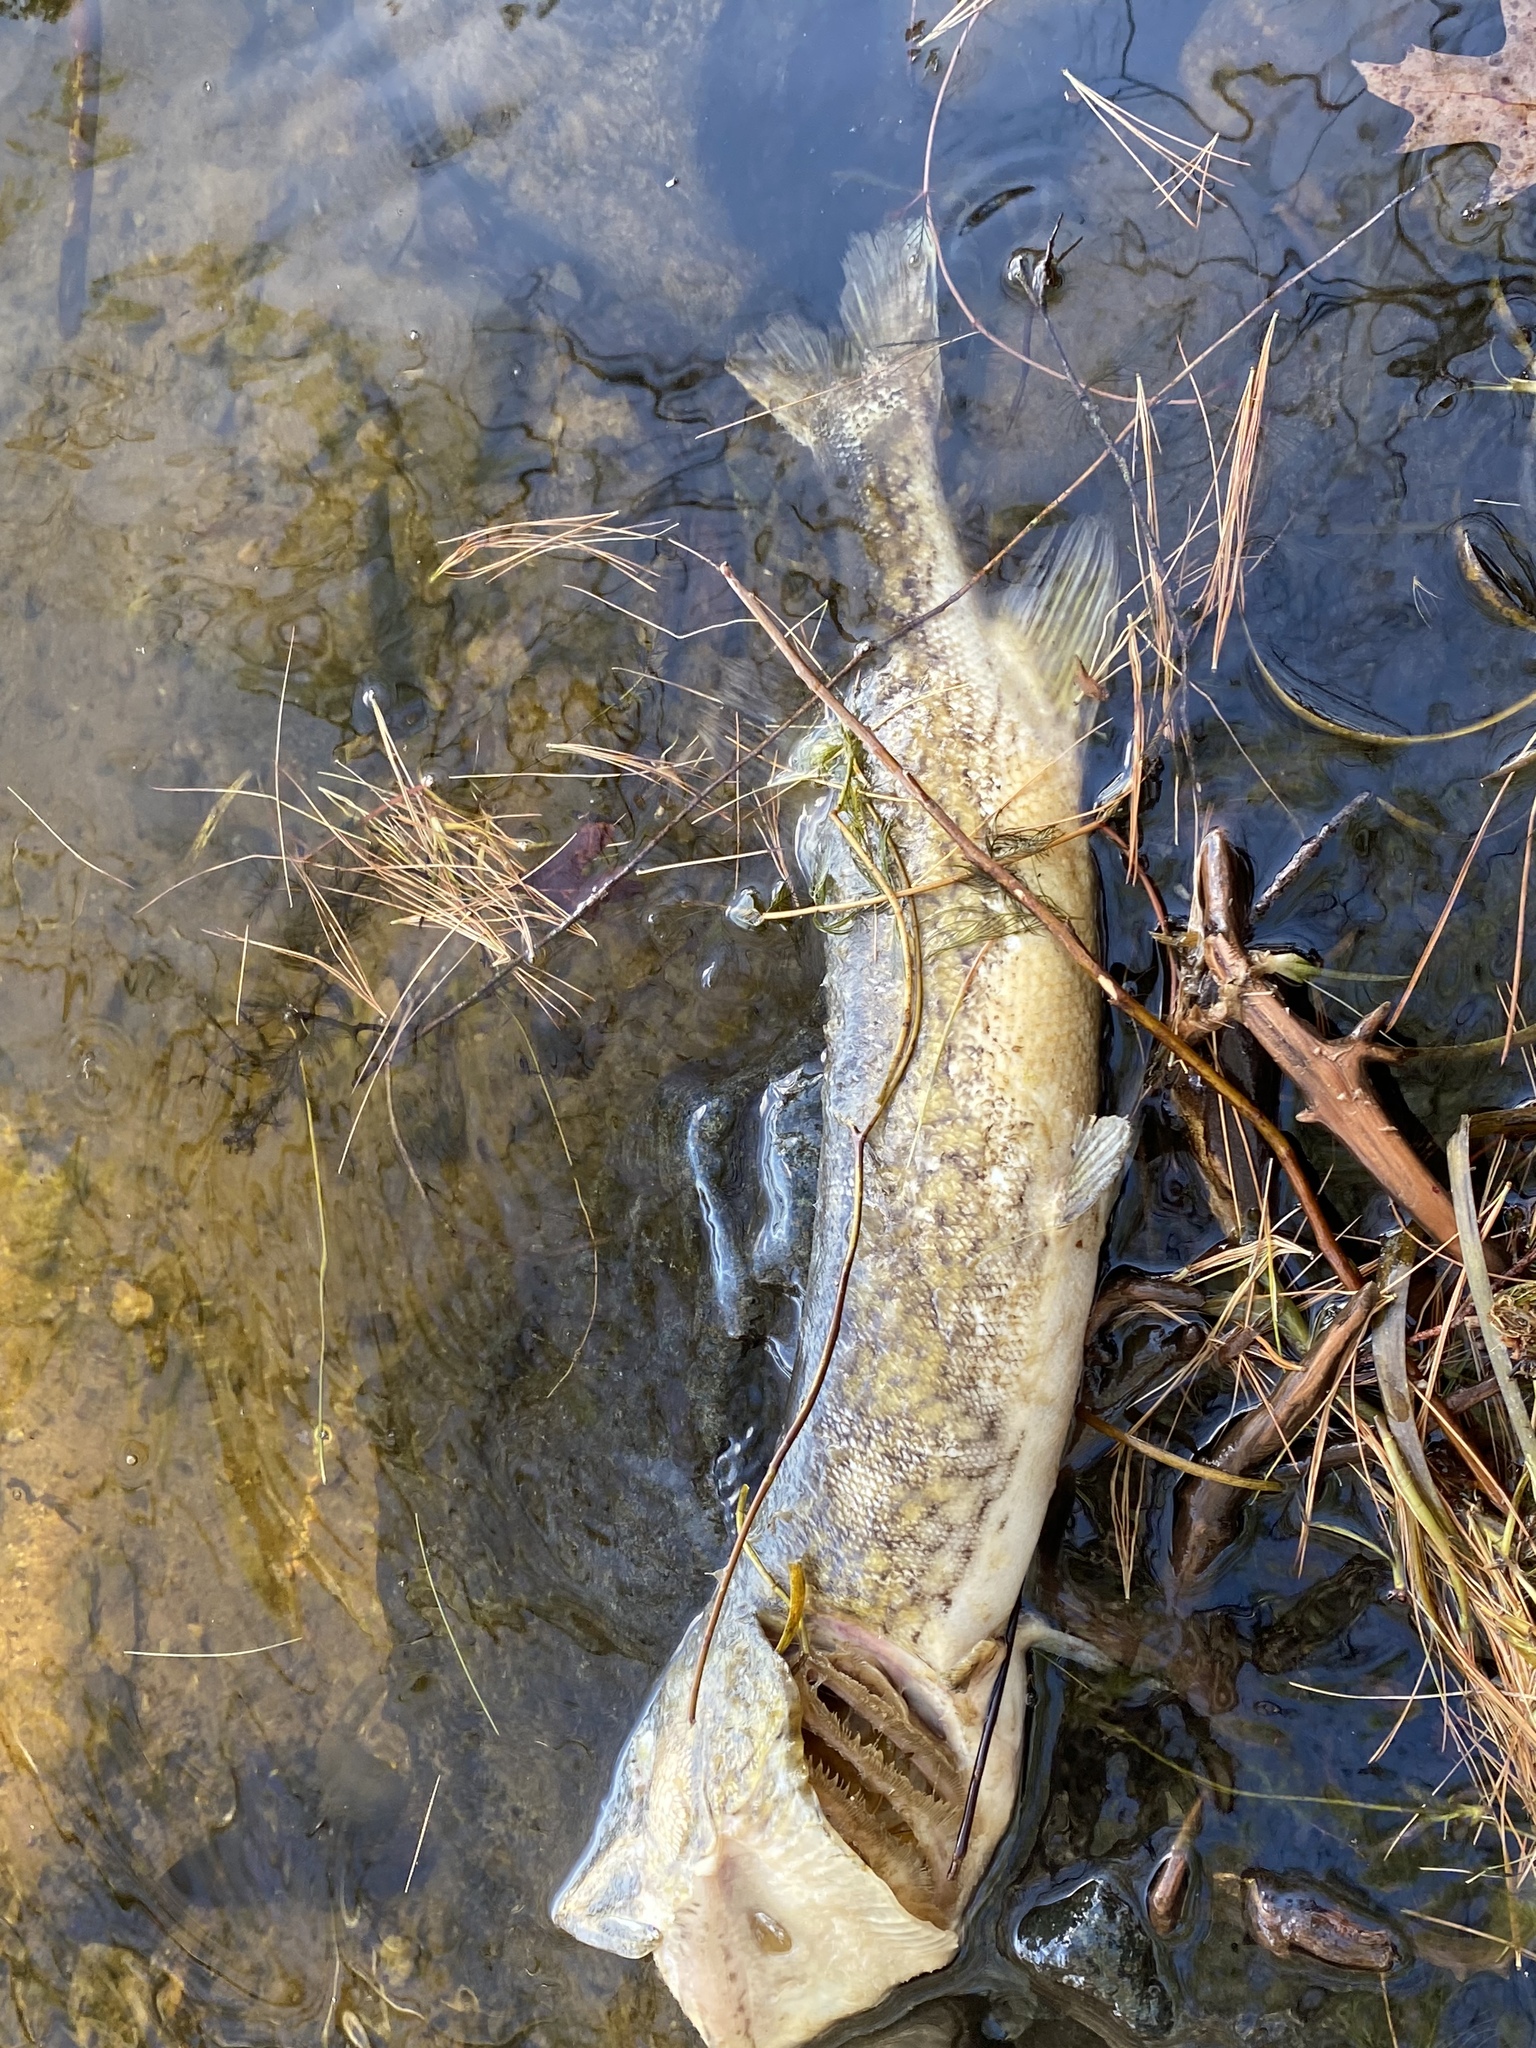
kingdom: Animalia
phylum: Chordata
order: Esociformes
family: Esocidae
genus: Esox
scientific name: Esox niger
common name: Chain pickerel
